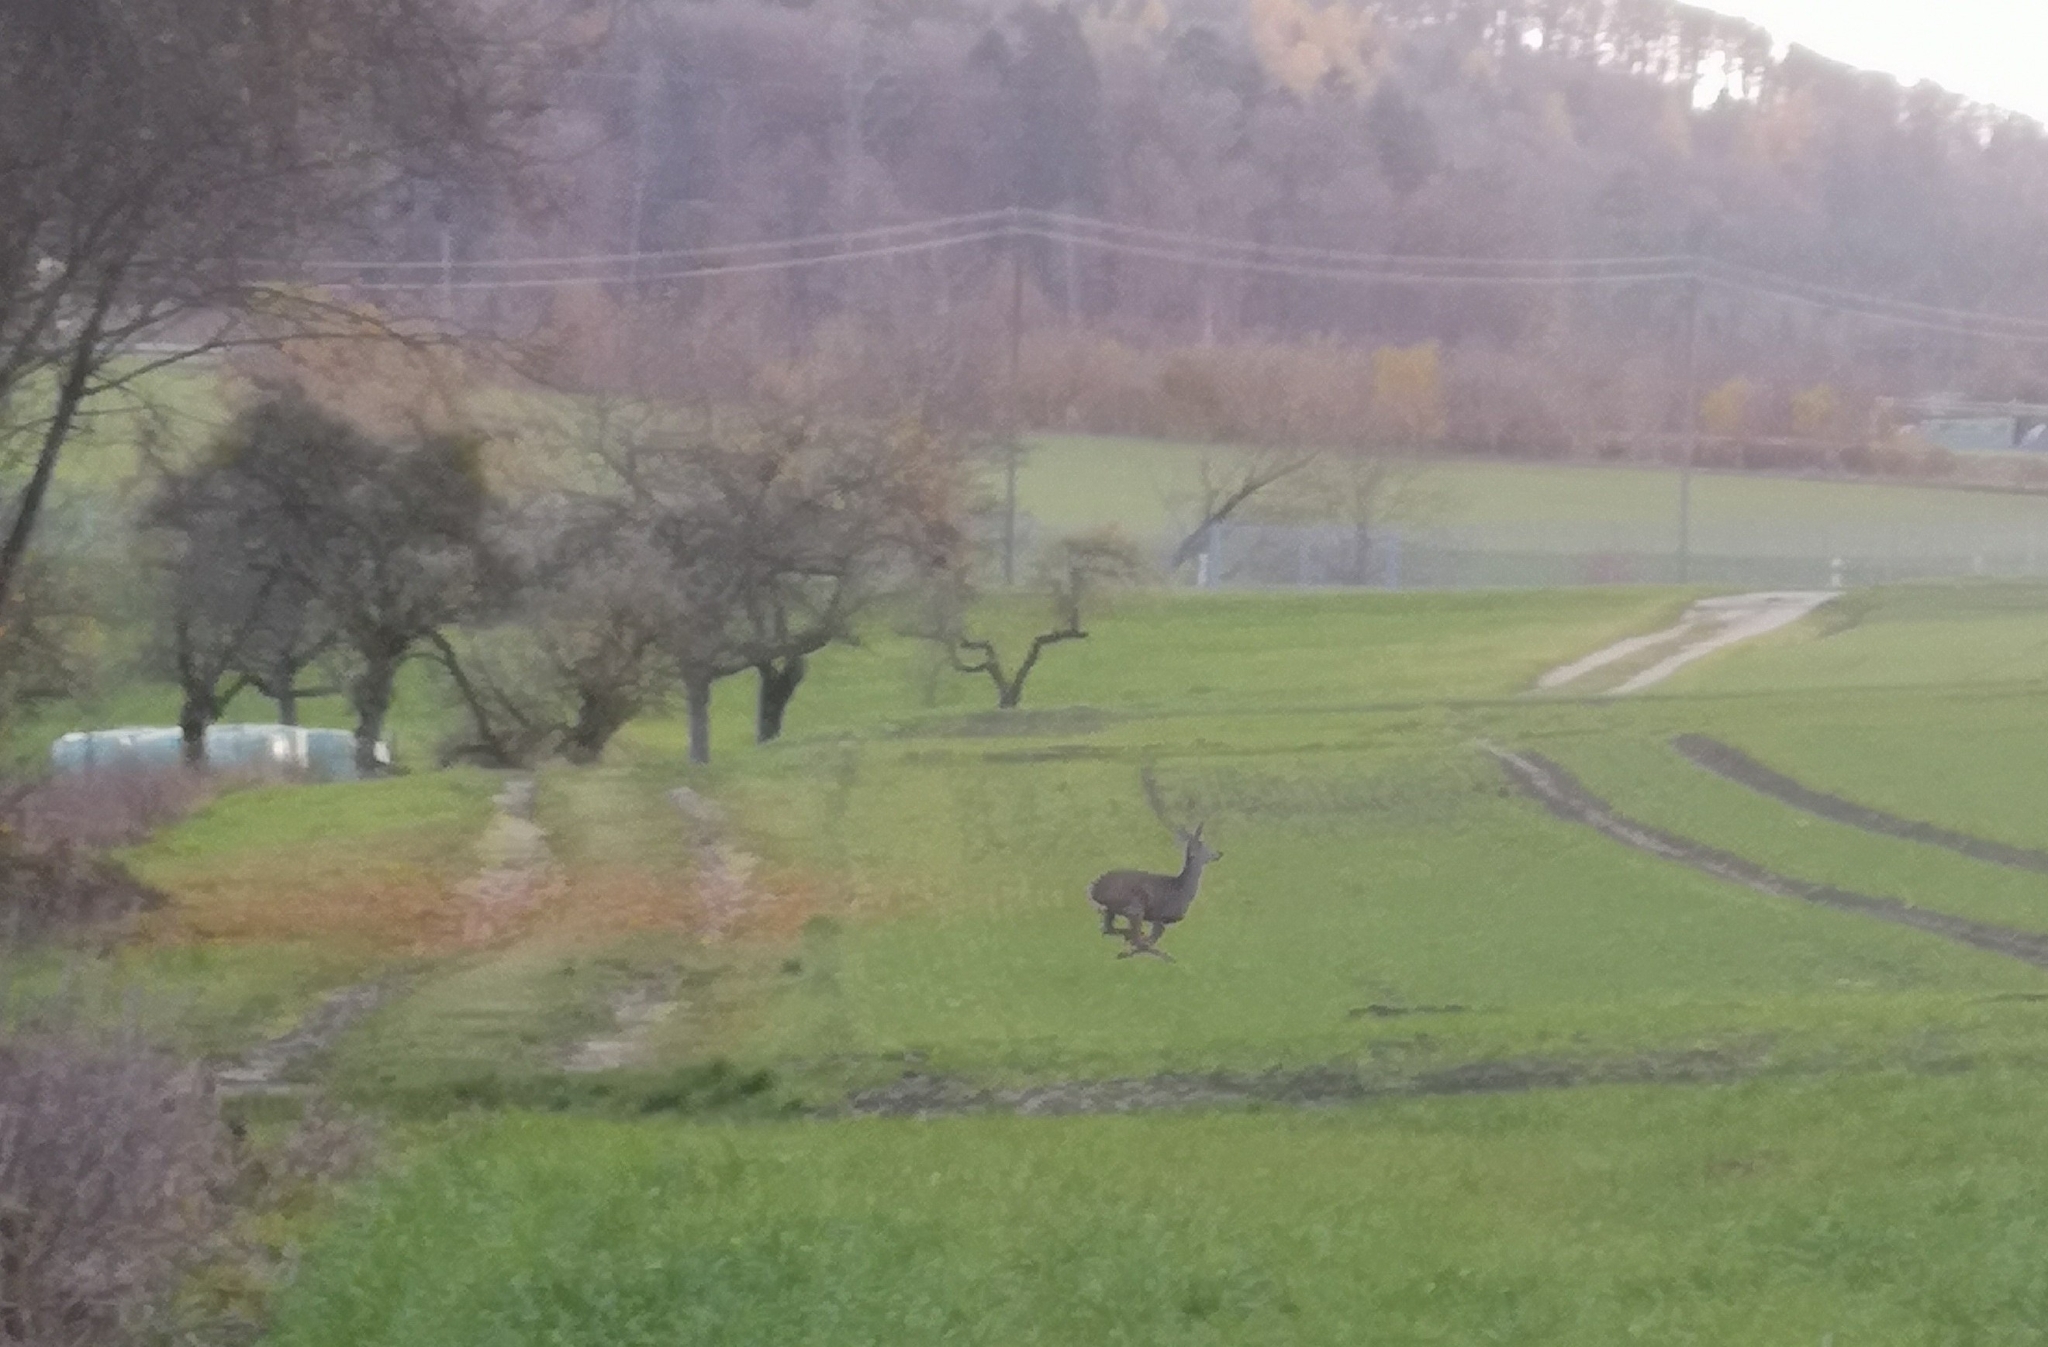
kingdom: Animalia
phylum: Chordata
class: Mammalia
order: Artiodactyla
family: Cervidae
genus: Capreolus
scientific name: Capreolus capreolus
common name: Western roe deer
